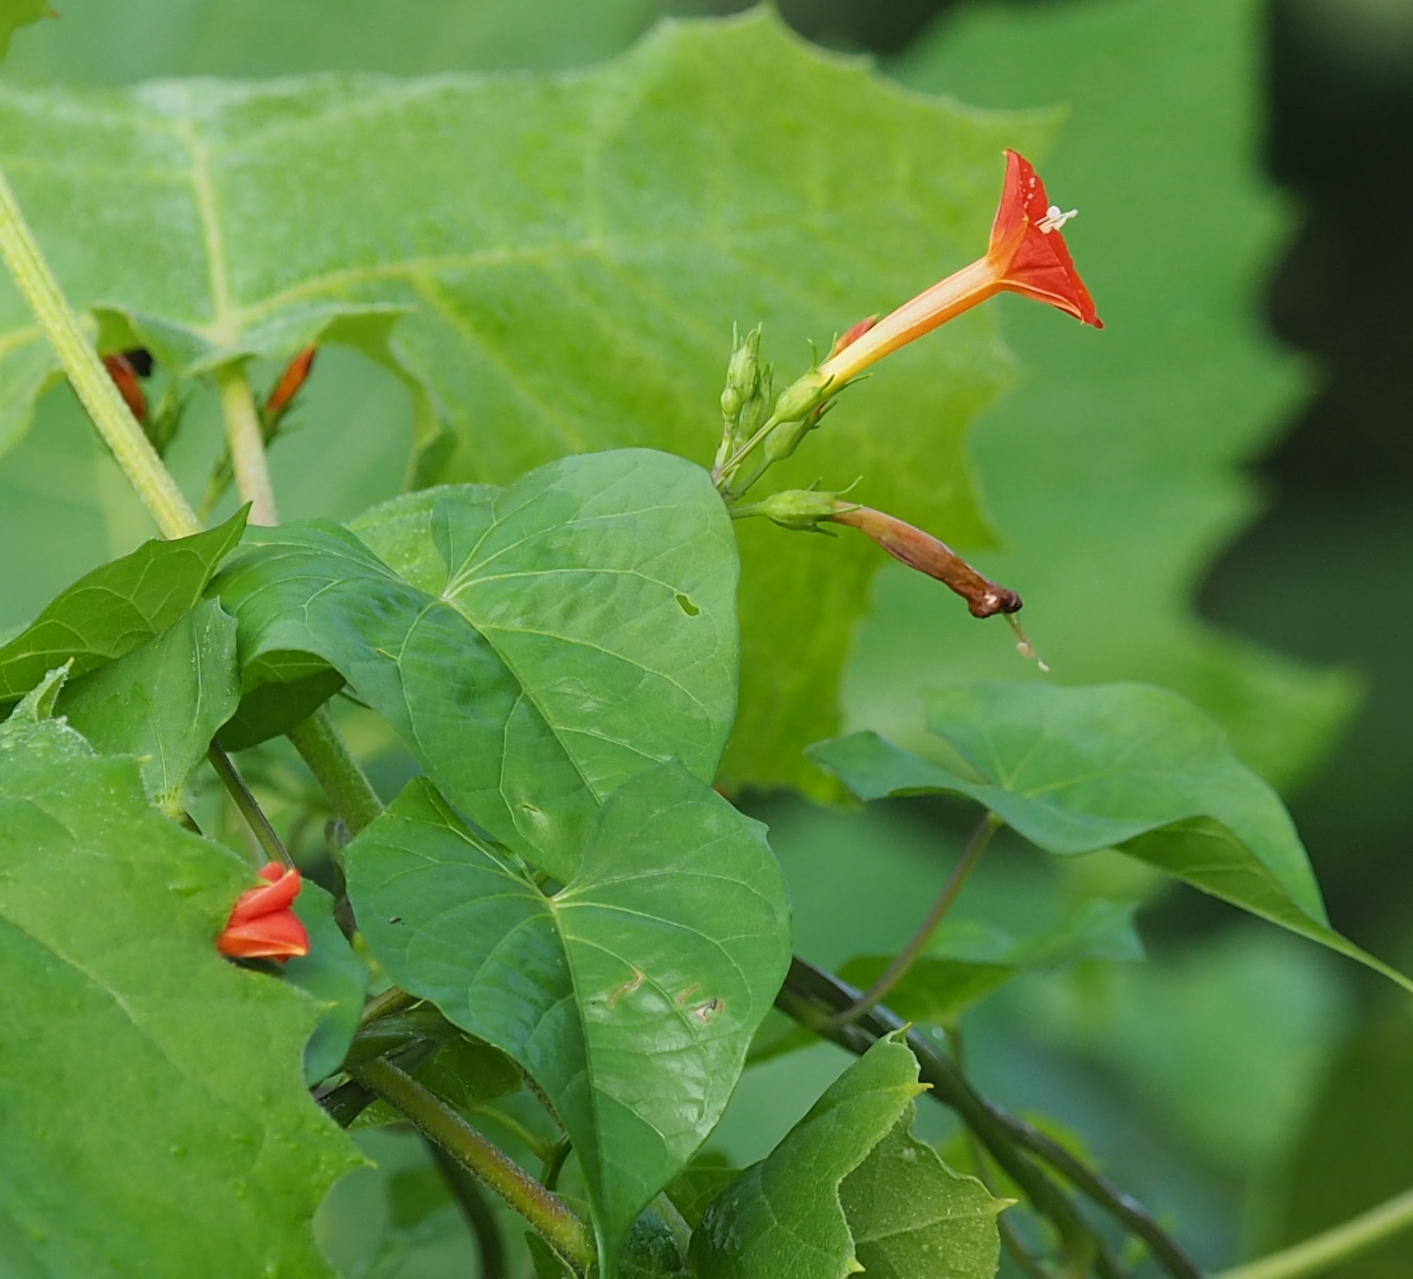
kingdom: Plantae
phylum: Tracheophyta
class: Magnoliopsida
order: Solanales
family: Convolvulaceae
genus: Ipomoea
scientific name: Ipomoea coccinea
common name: Red morning-glory
